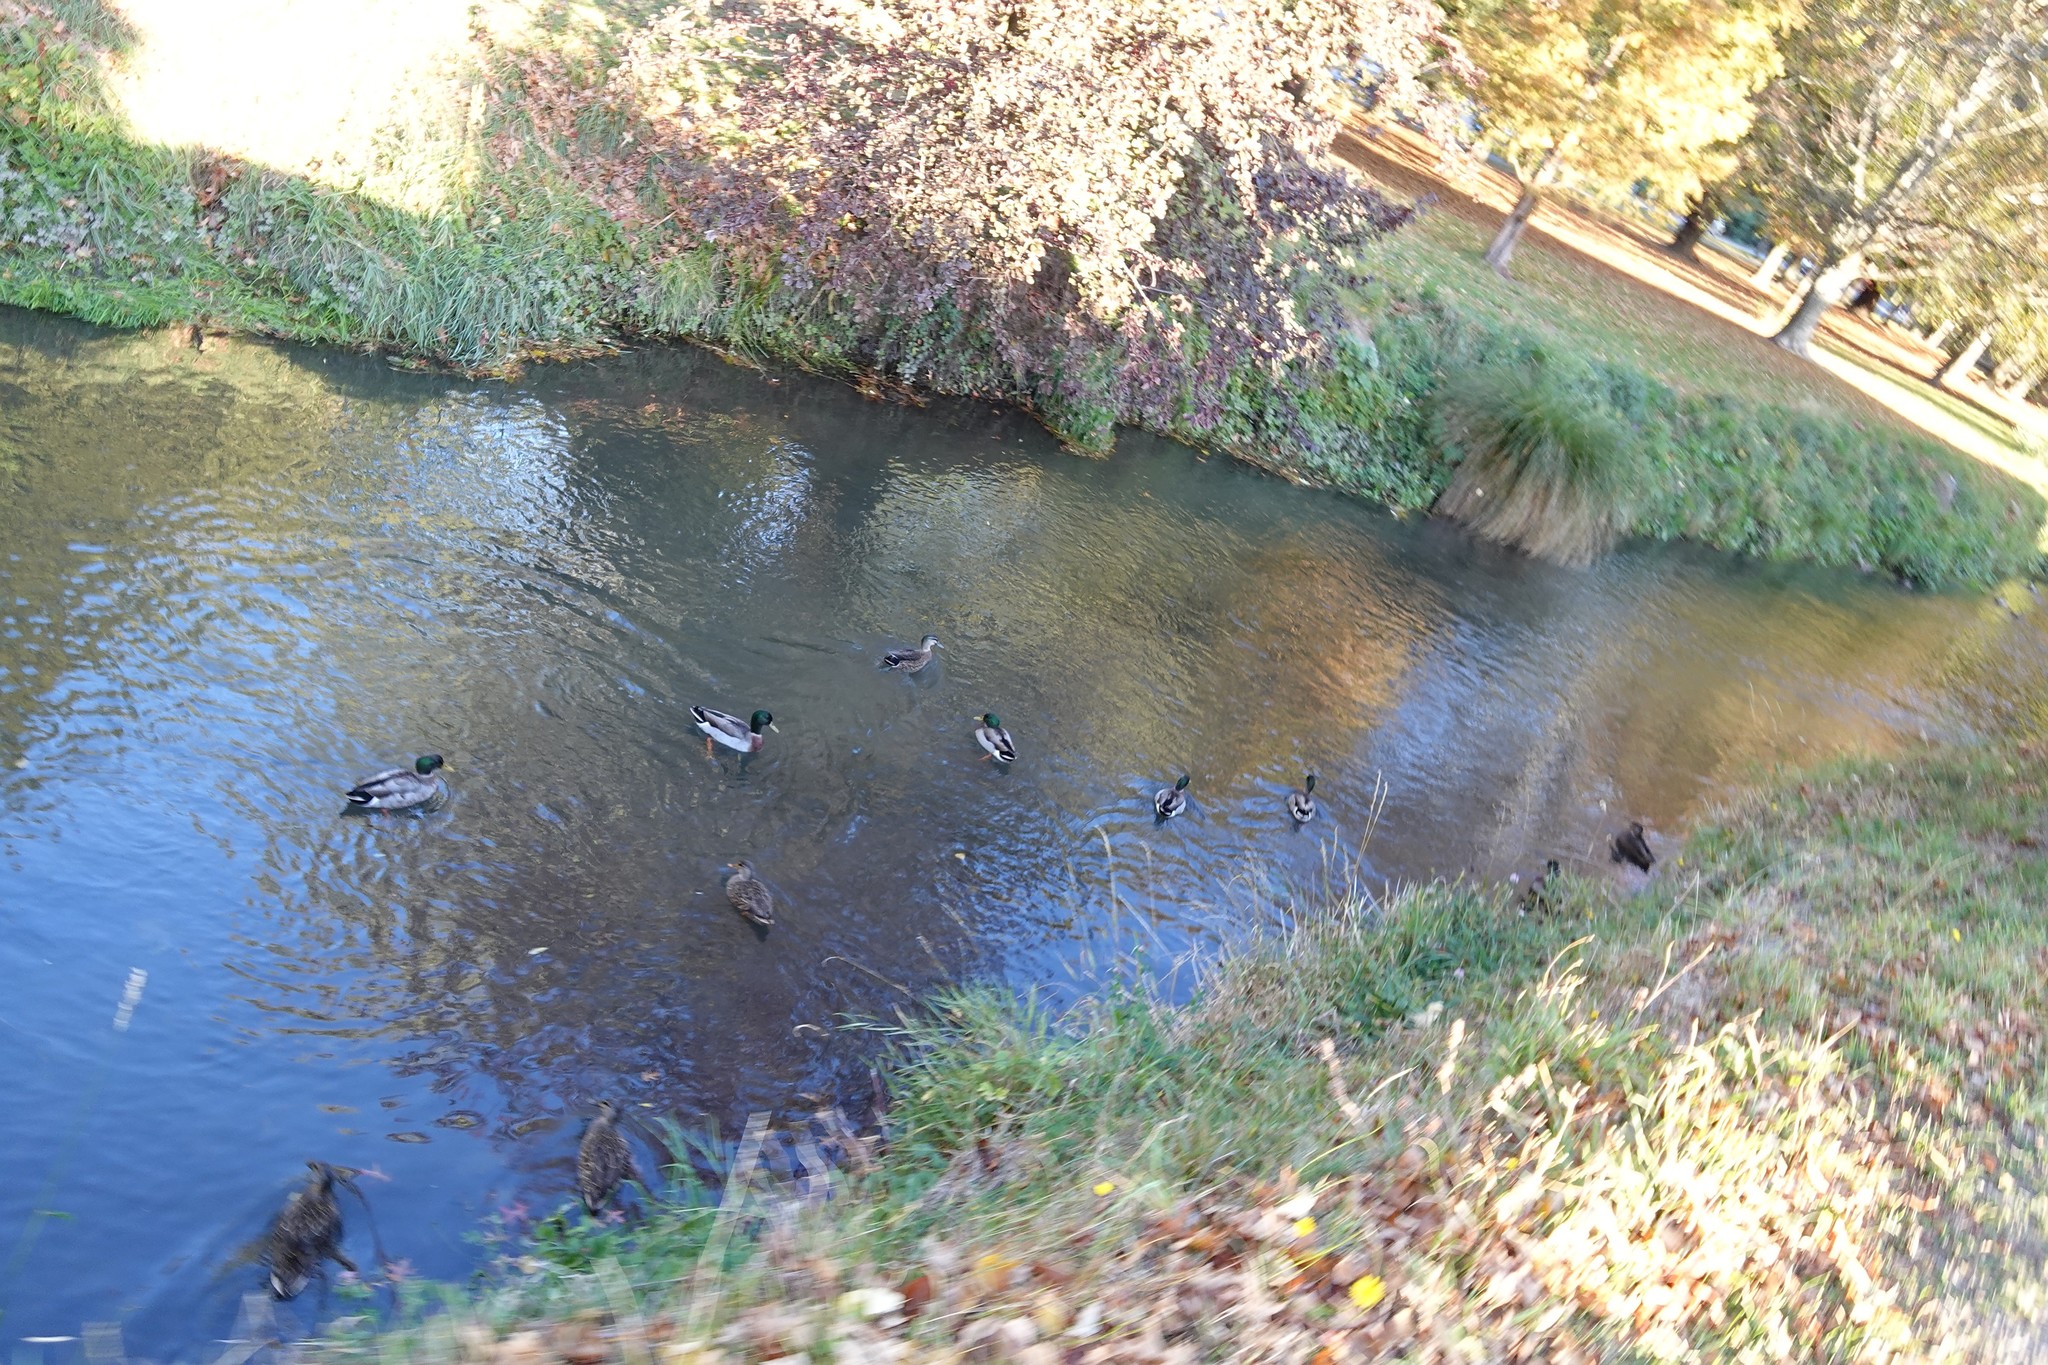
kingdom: Animalia
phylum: Chordata
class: Aves
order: Anseriformes
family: Anatidae
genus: Anas
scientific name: Anas platyrhynchos
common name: Mallard
